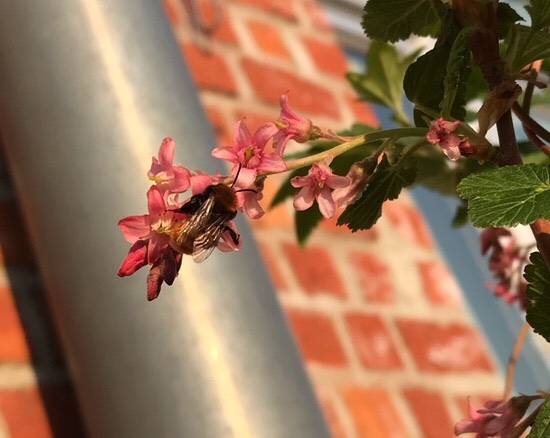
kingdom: Animalia
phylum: Arthropoda
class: Insecta
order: Hymenoptera
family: Andrenidae
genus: Andrena
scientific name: Andrena fulva
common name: Tawny mining bee
